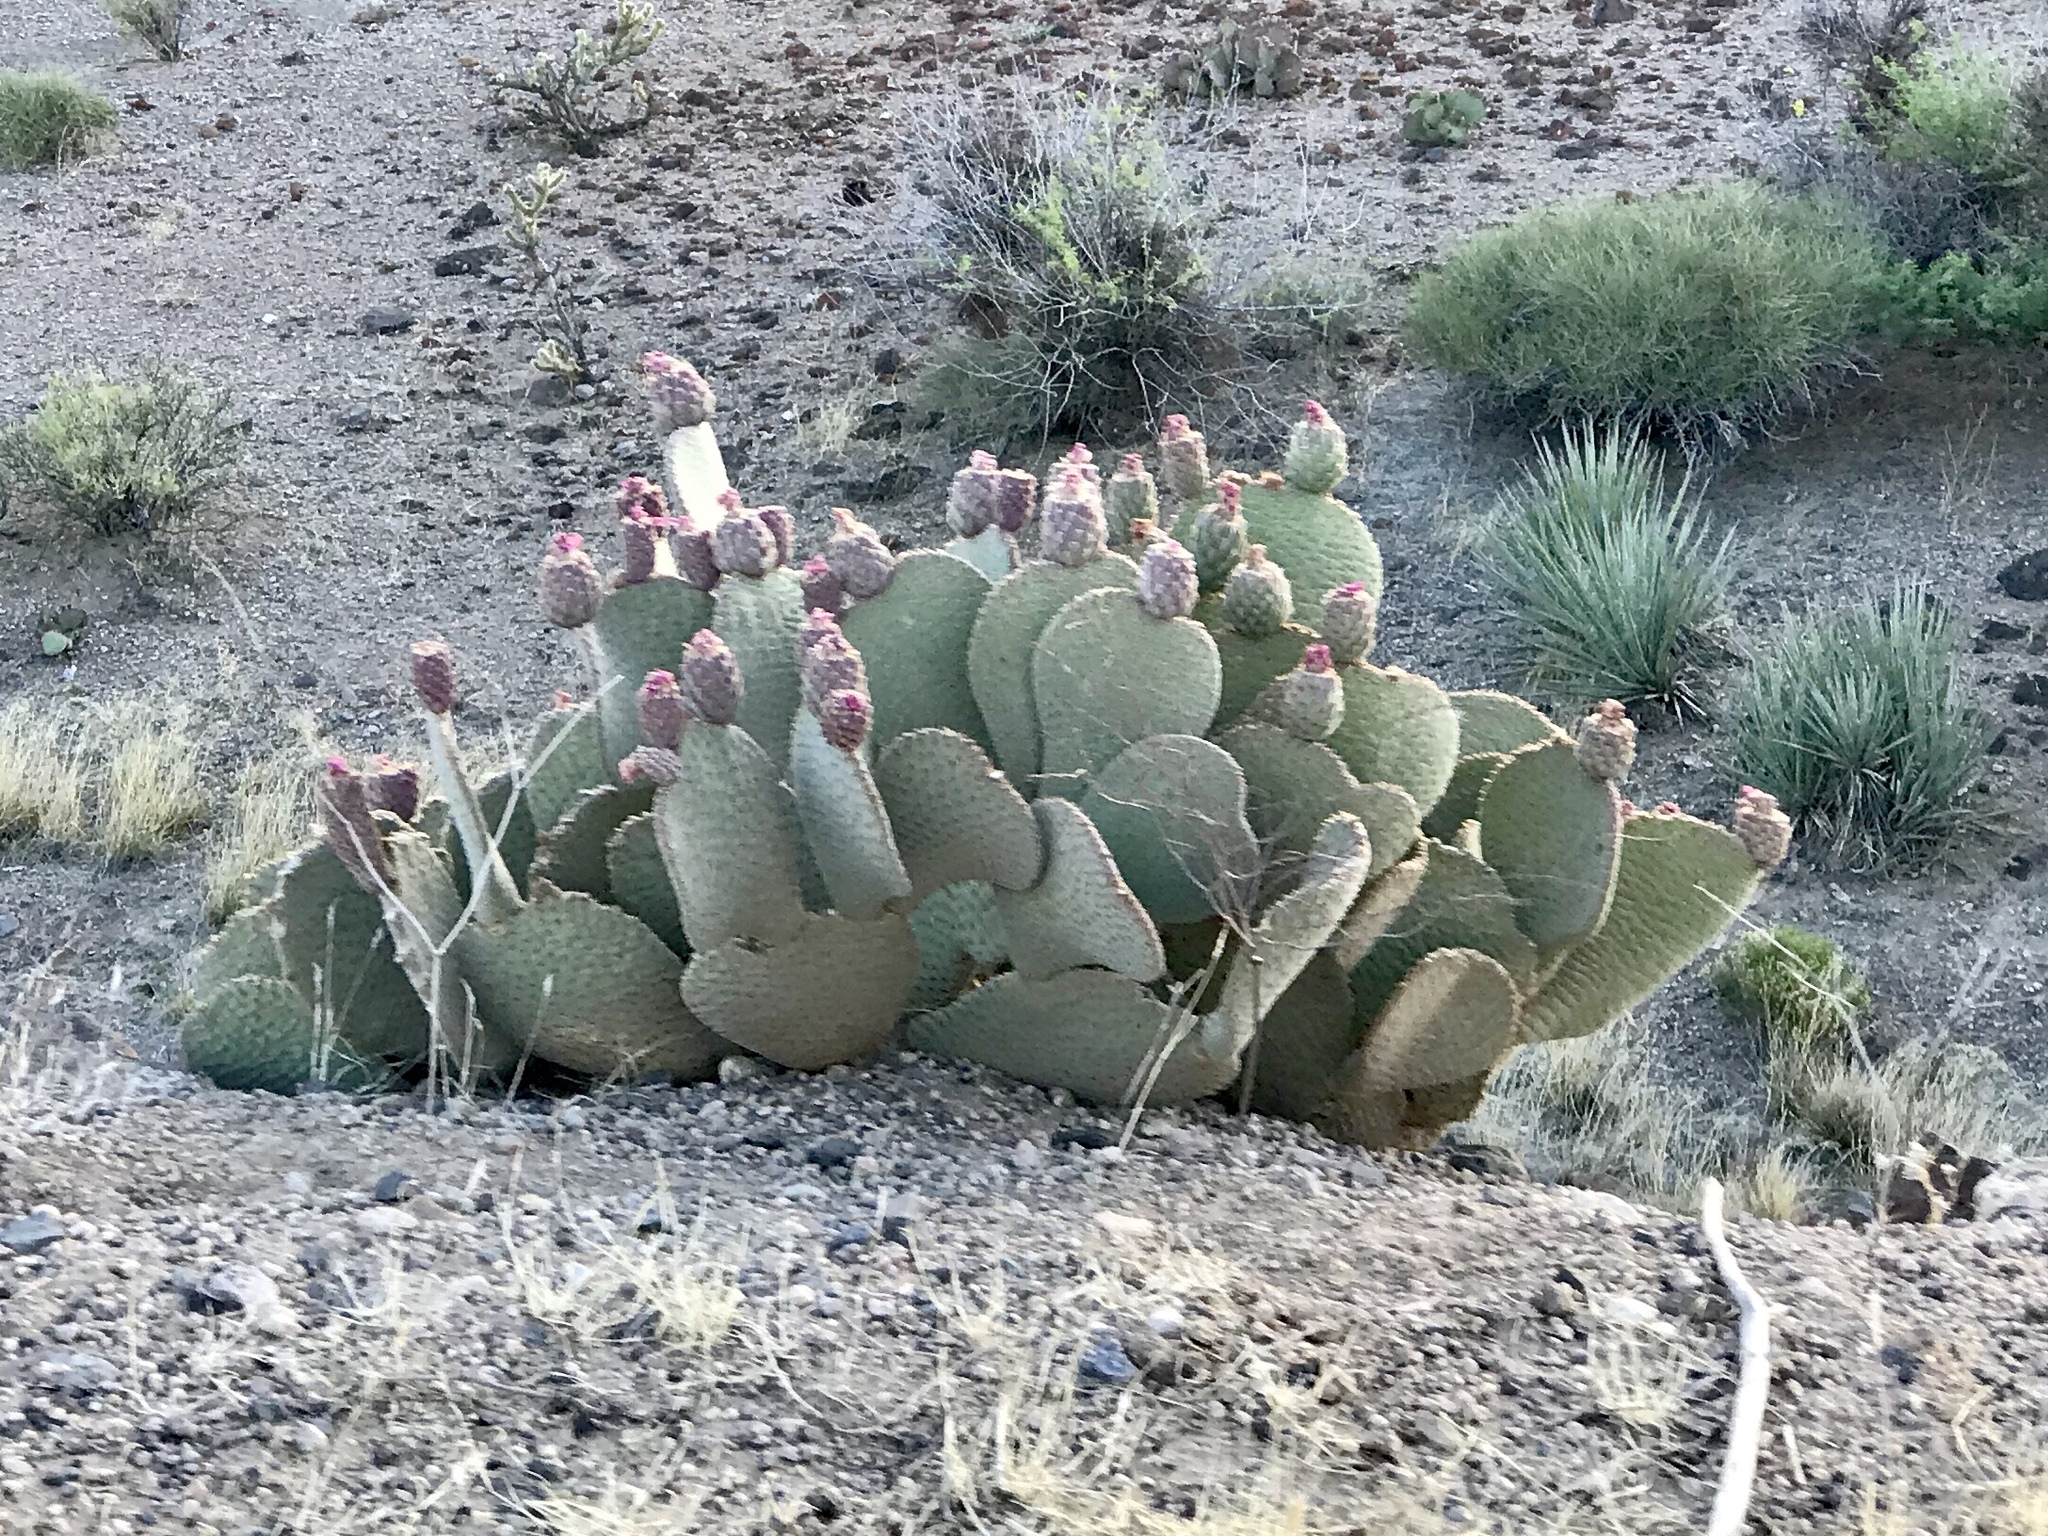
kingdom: Plantae
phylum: Tracheophyta
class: Magnoliopsida
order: Caryophyllales
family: Cactaceae
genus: Opuntia
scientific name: Opuntia basilaris
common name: Beavertail prickly-pear
